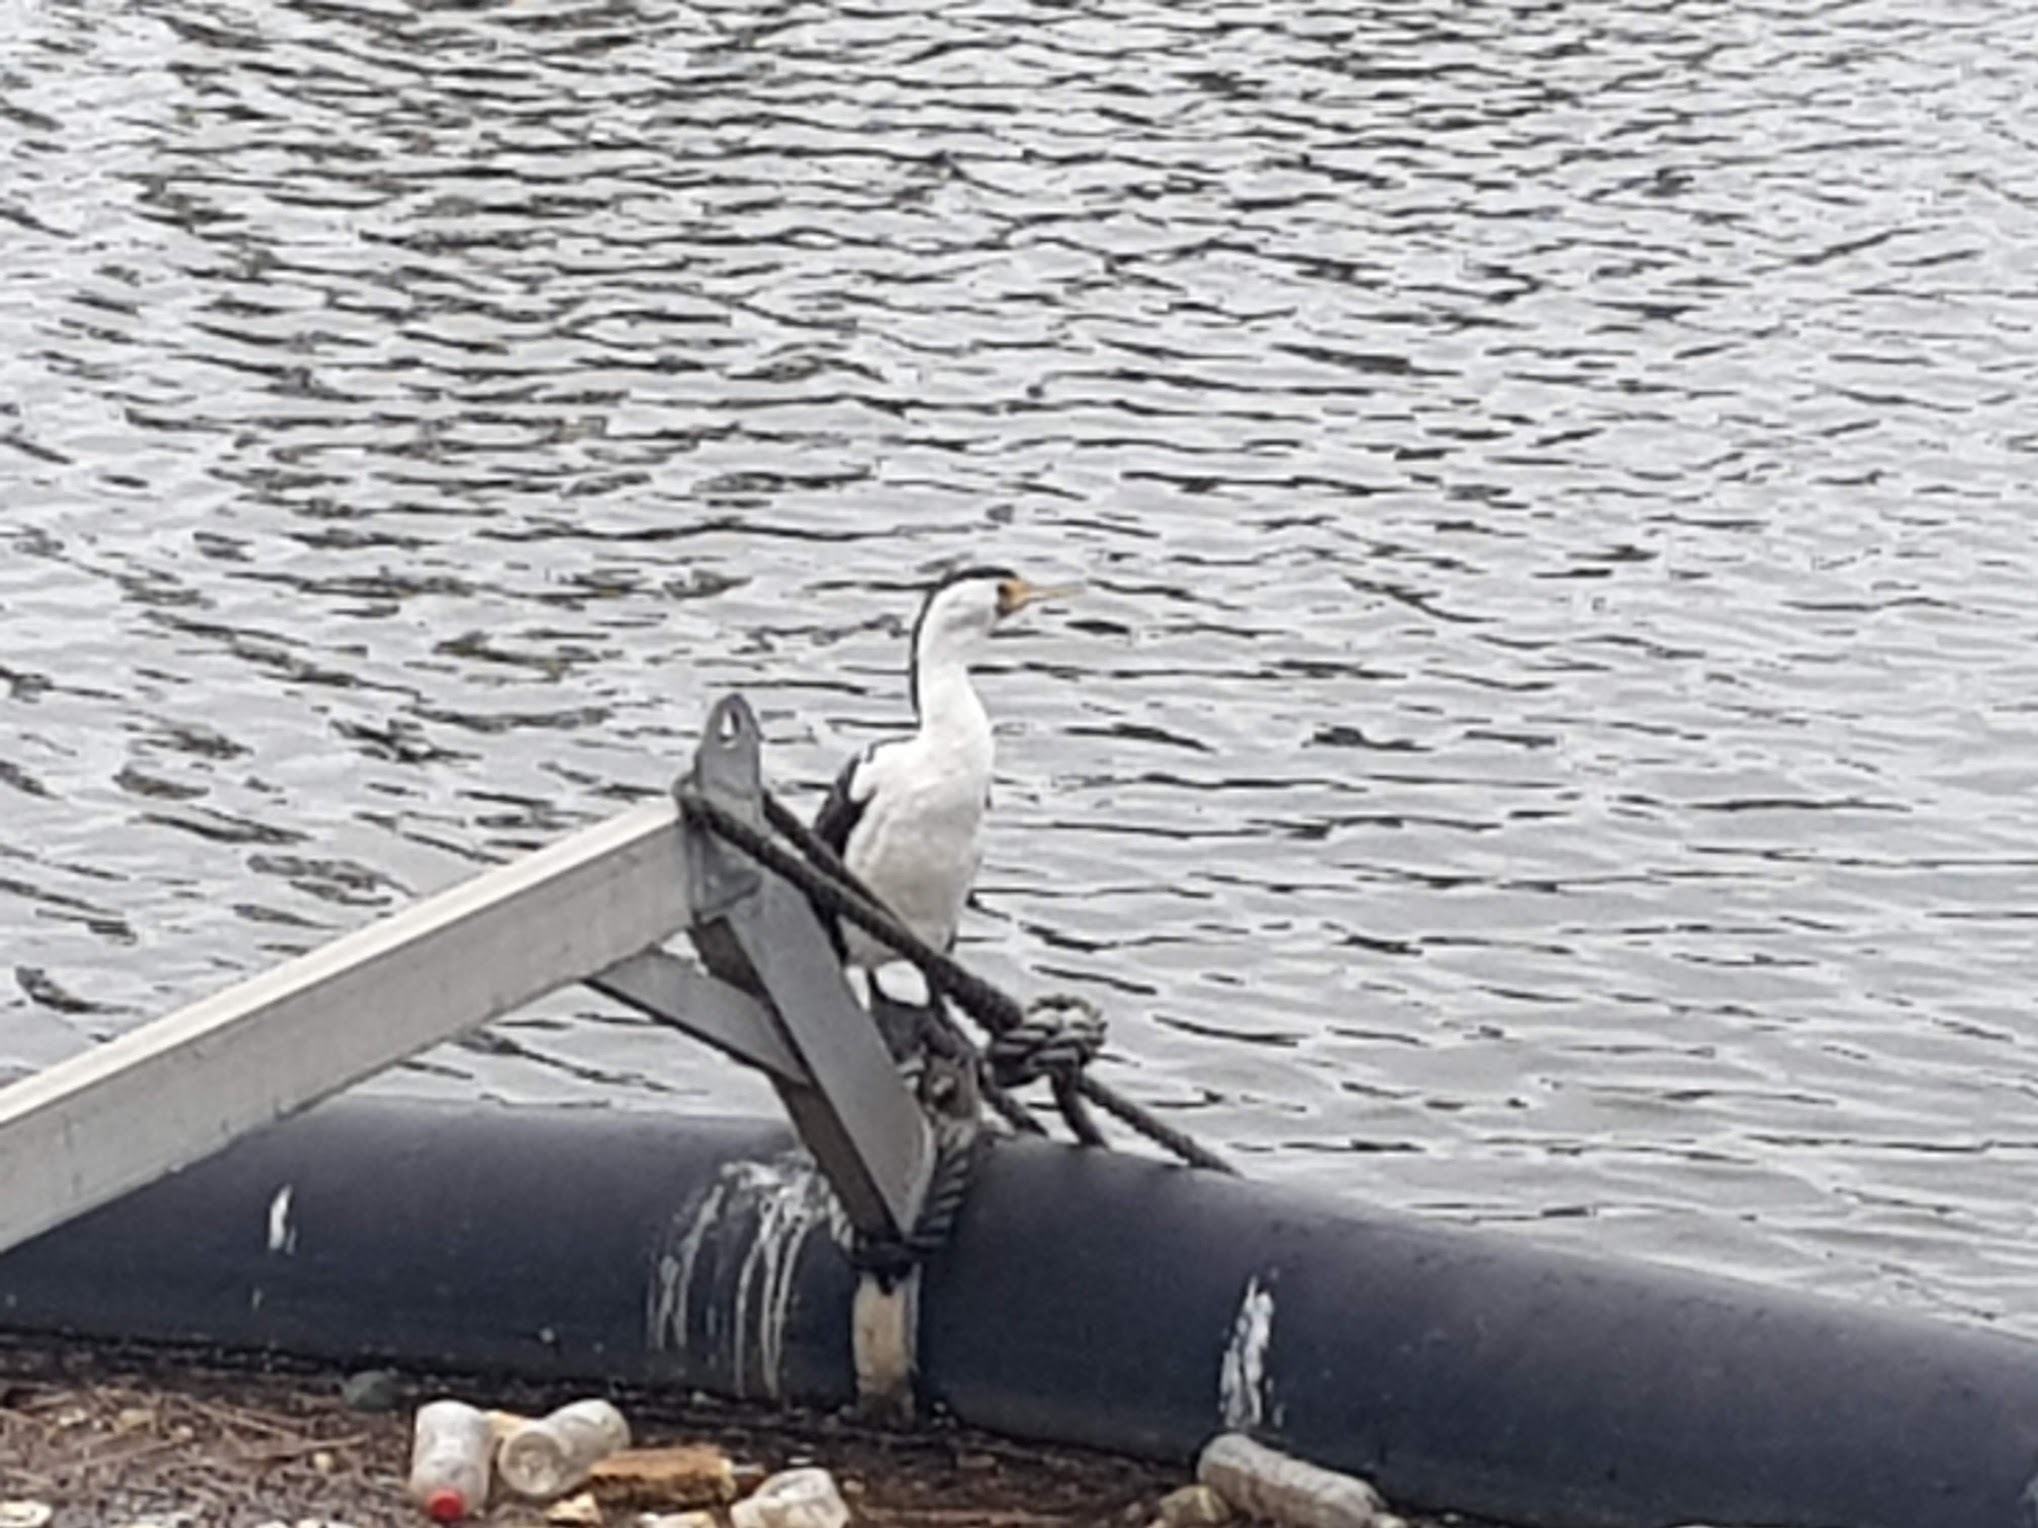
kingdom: Animalia
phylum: Chordata
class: Aves
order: Suliformes
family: Phalacrocoracidae
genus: Phalacrocorax
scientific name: Phalacrocorax varius
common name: Pied cormorant
